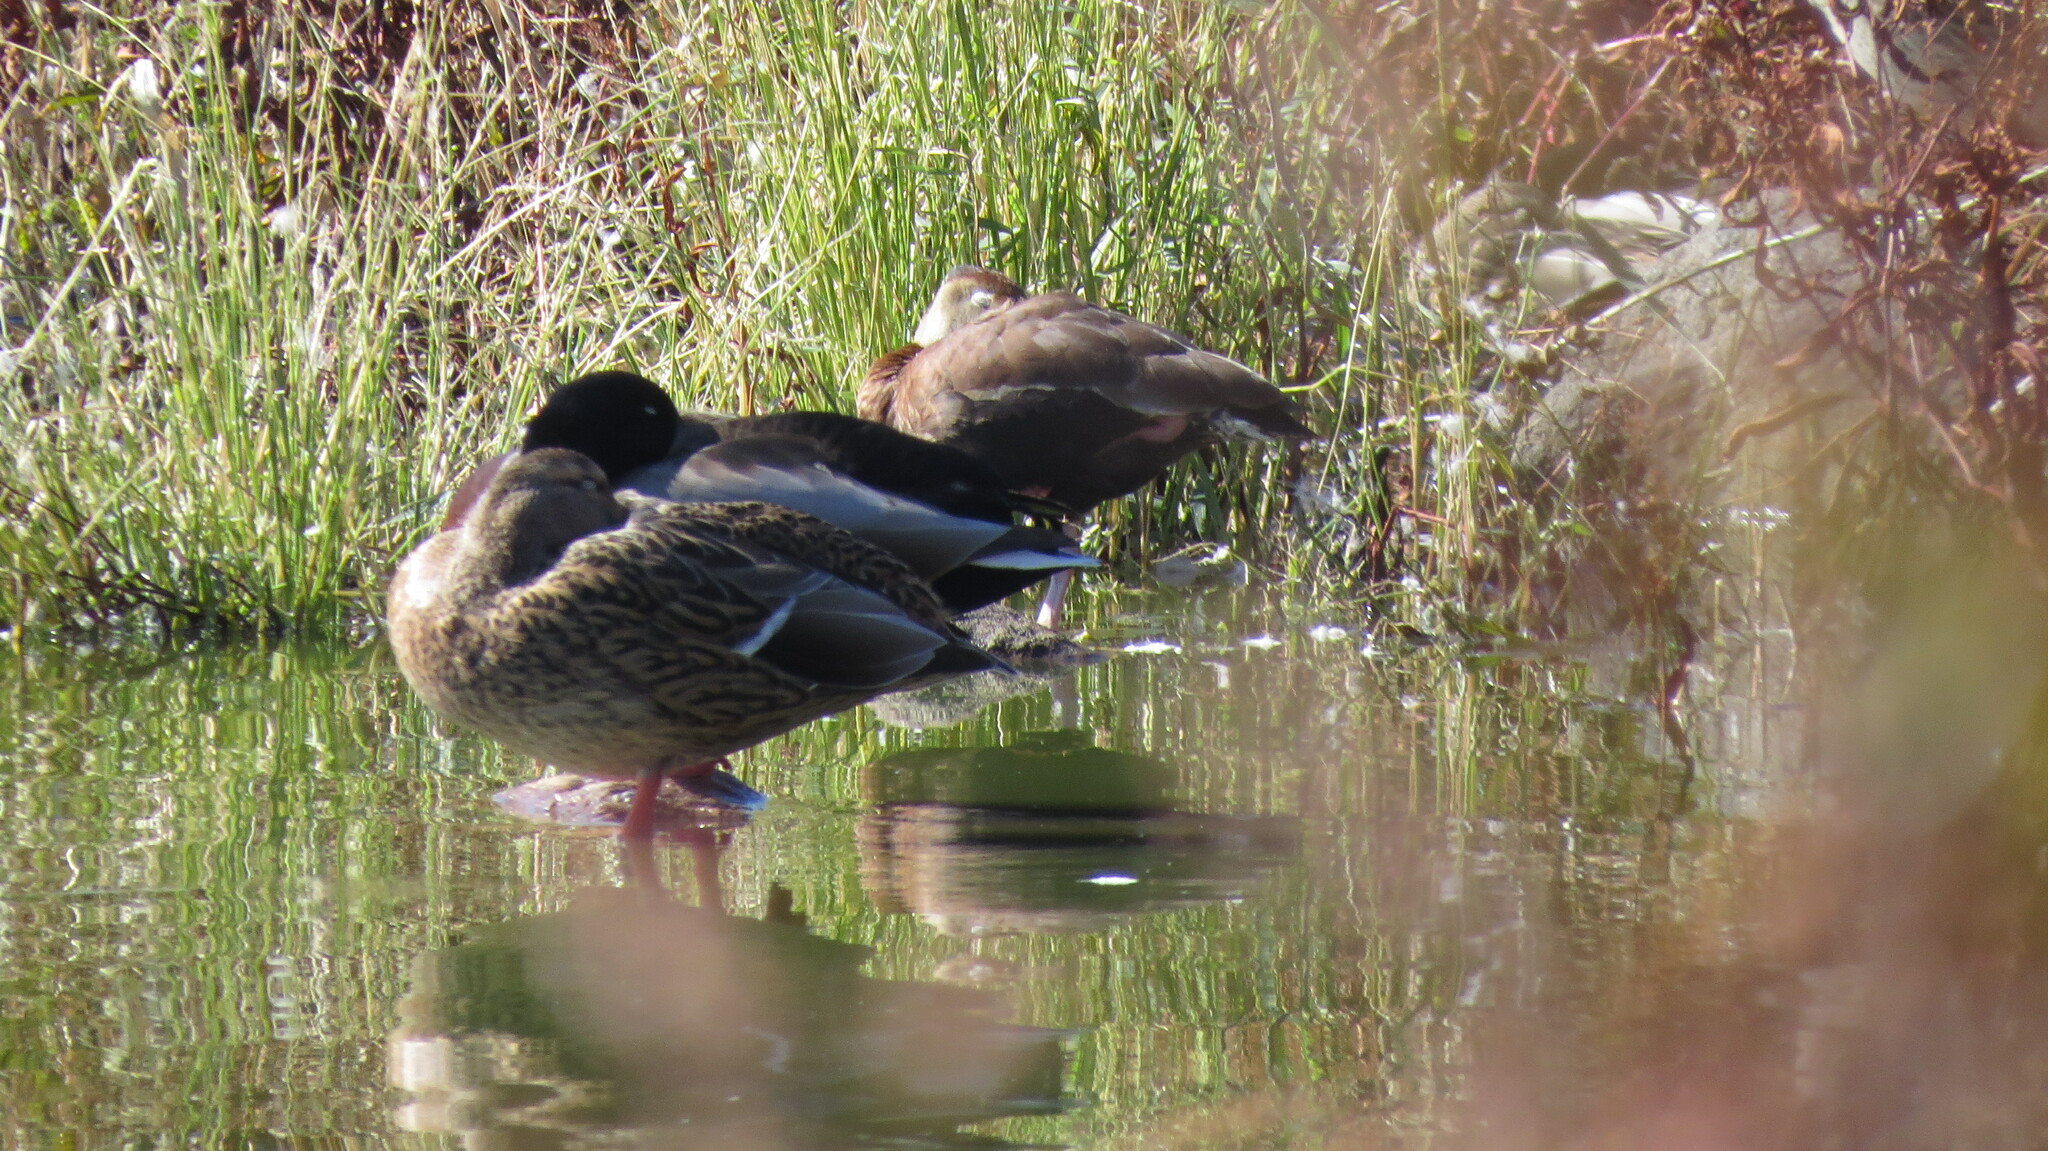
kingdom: Animalia
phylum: Chordata
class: Aves
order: Anseriformes
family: Anatidae
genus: Dendrocygna
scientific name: Dendrocygna autumnalis
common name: Black-bellied whistling duck
